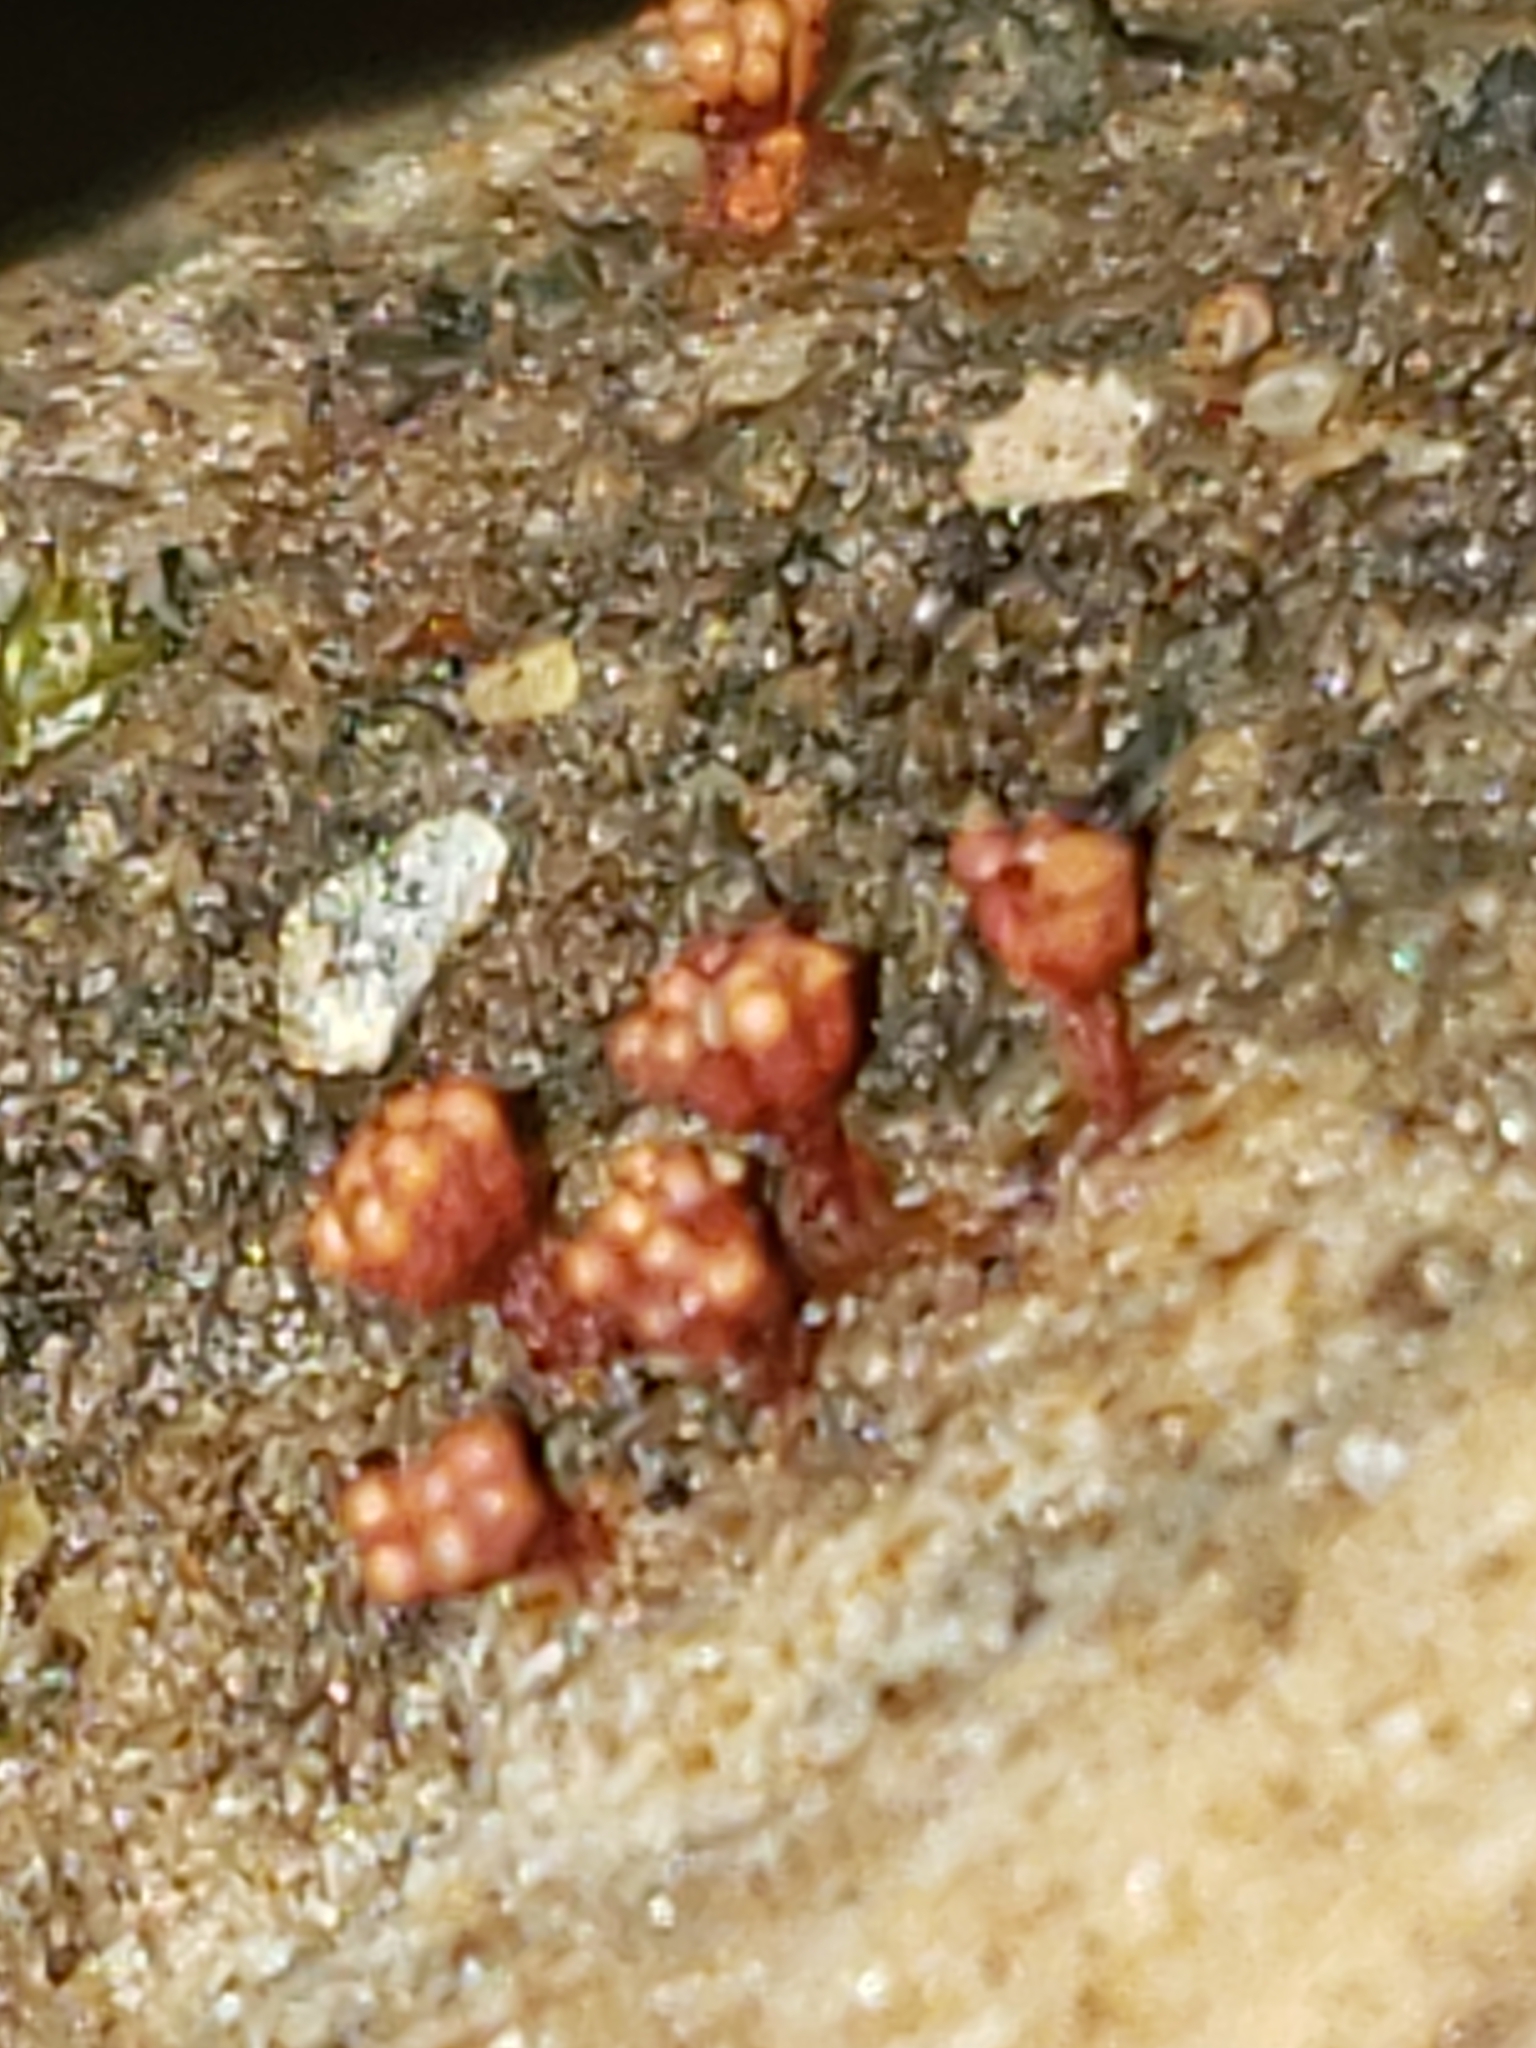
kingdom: Protozoa
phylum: Mycetozoa
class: Myxomycetes
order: Trichiales
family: Trichiaceae
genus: Metatrichia
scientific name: Metatrichia vesparia
